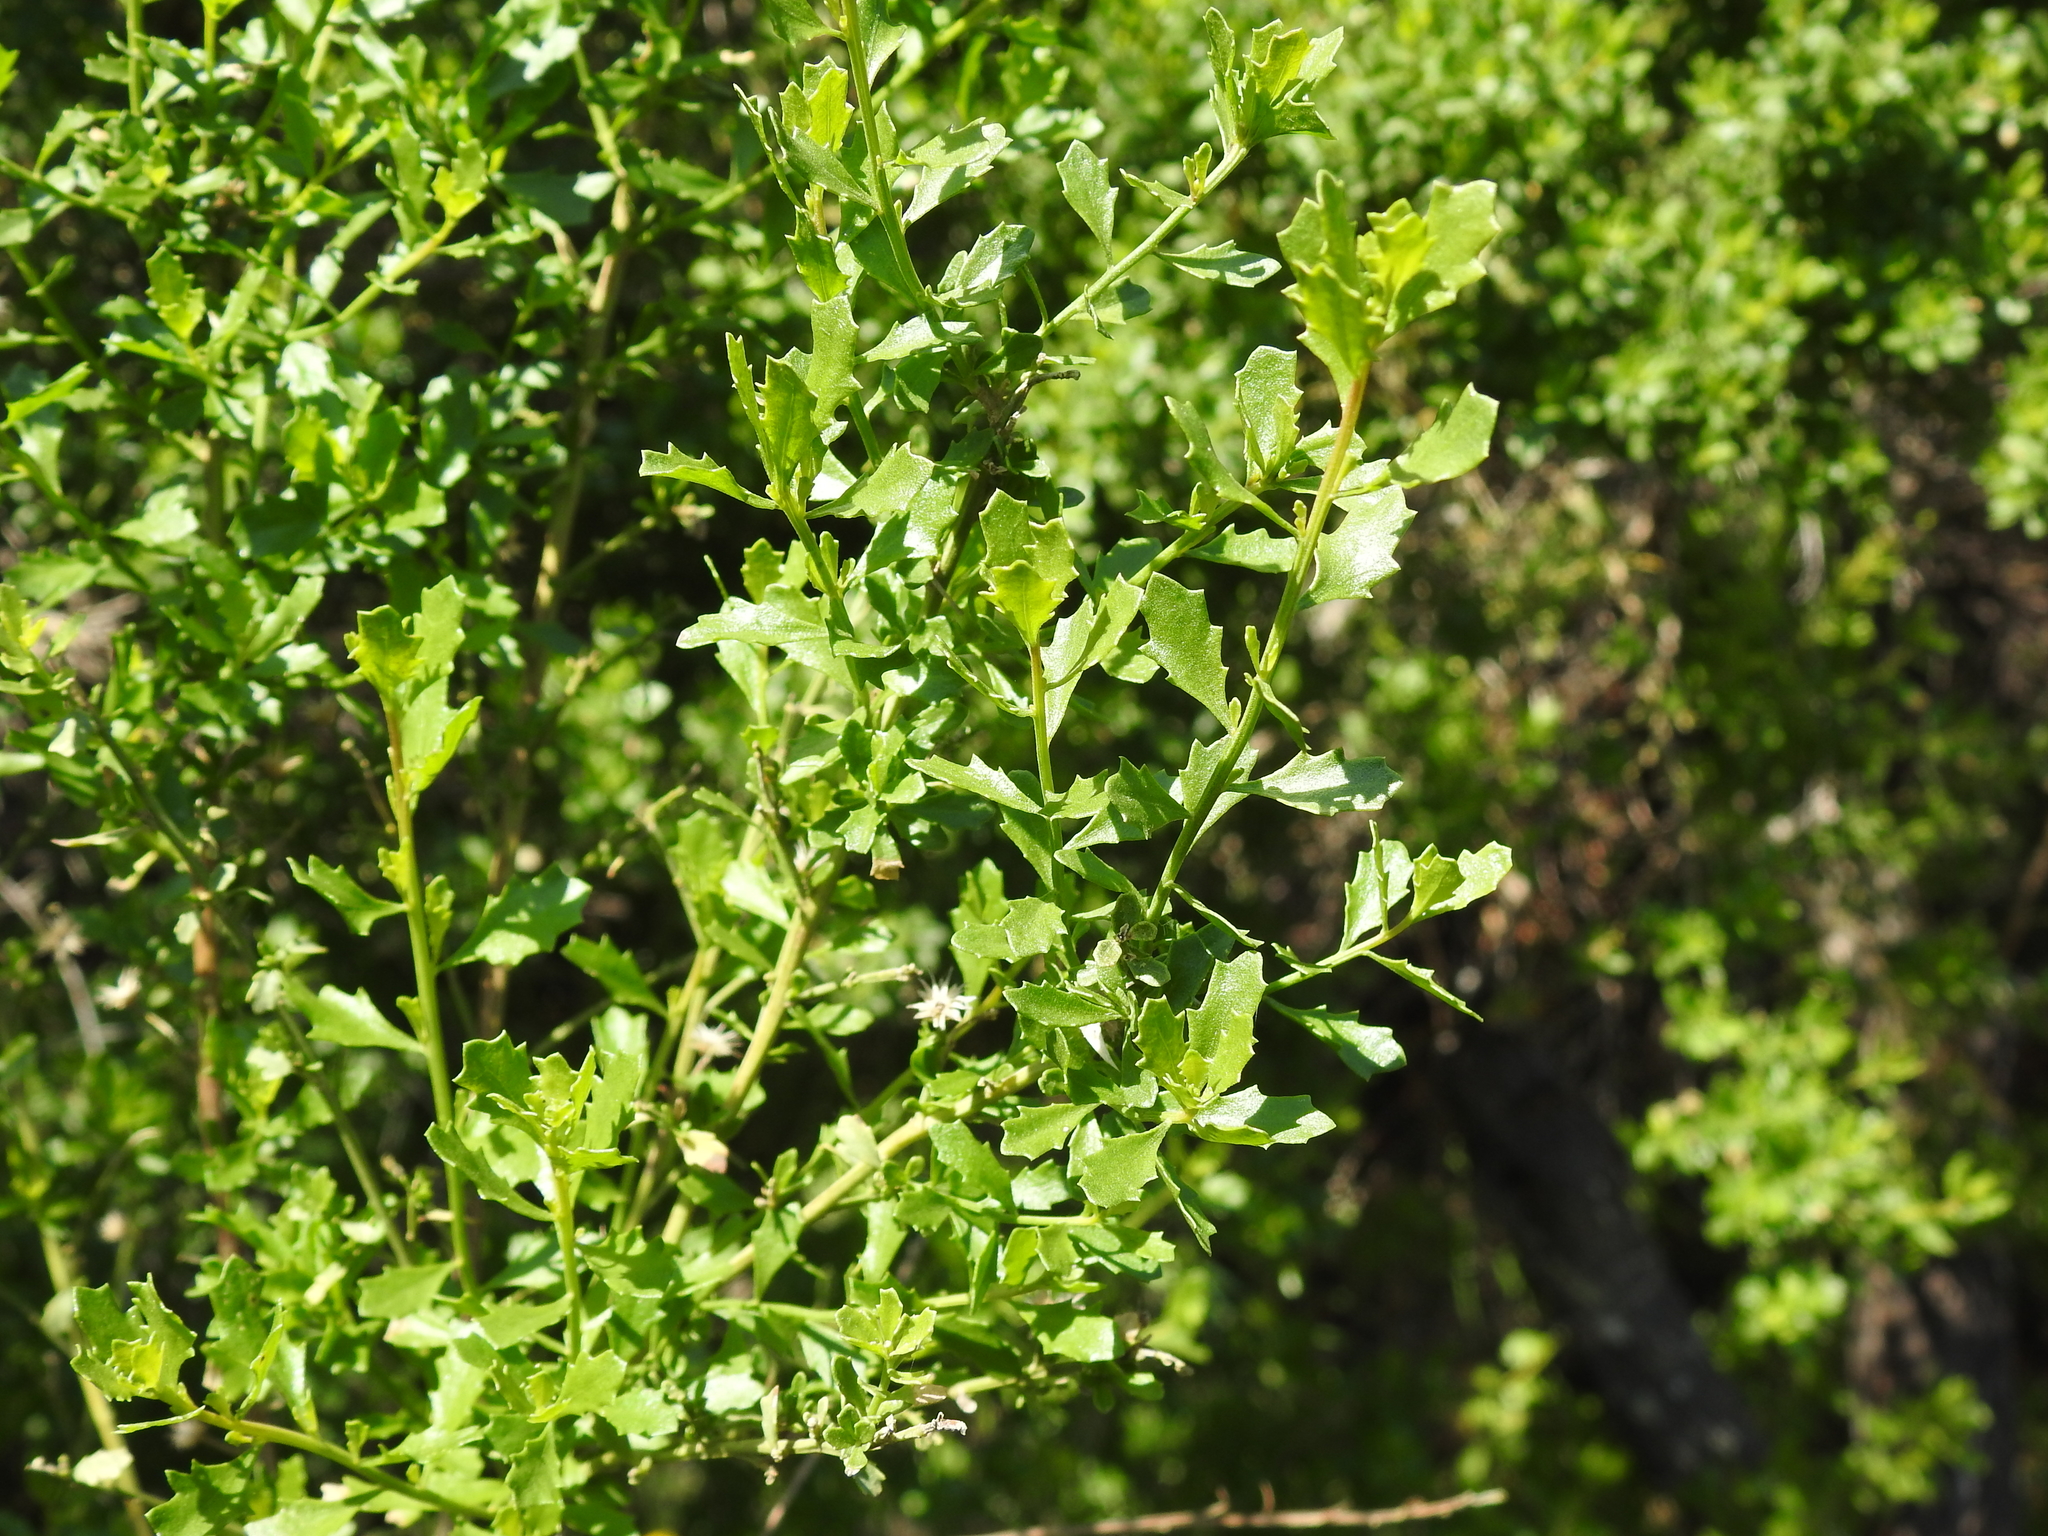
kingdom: Plantae
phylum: Tracheophyta
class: Magnoliopsida
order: Asterales
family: Asteraceae
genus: Baccharis
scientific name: Baccharis pilularis
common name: Coyotebrush
